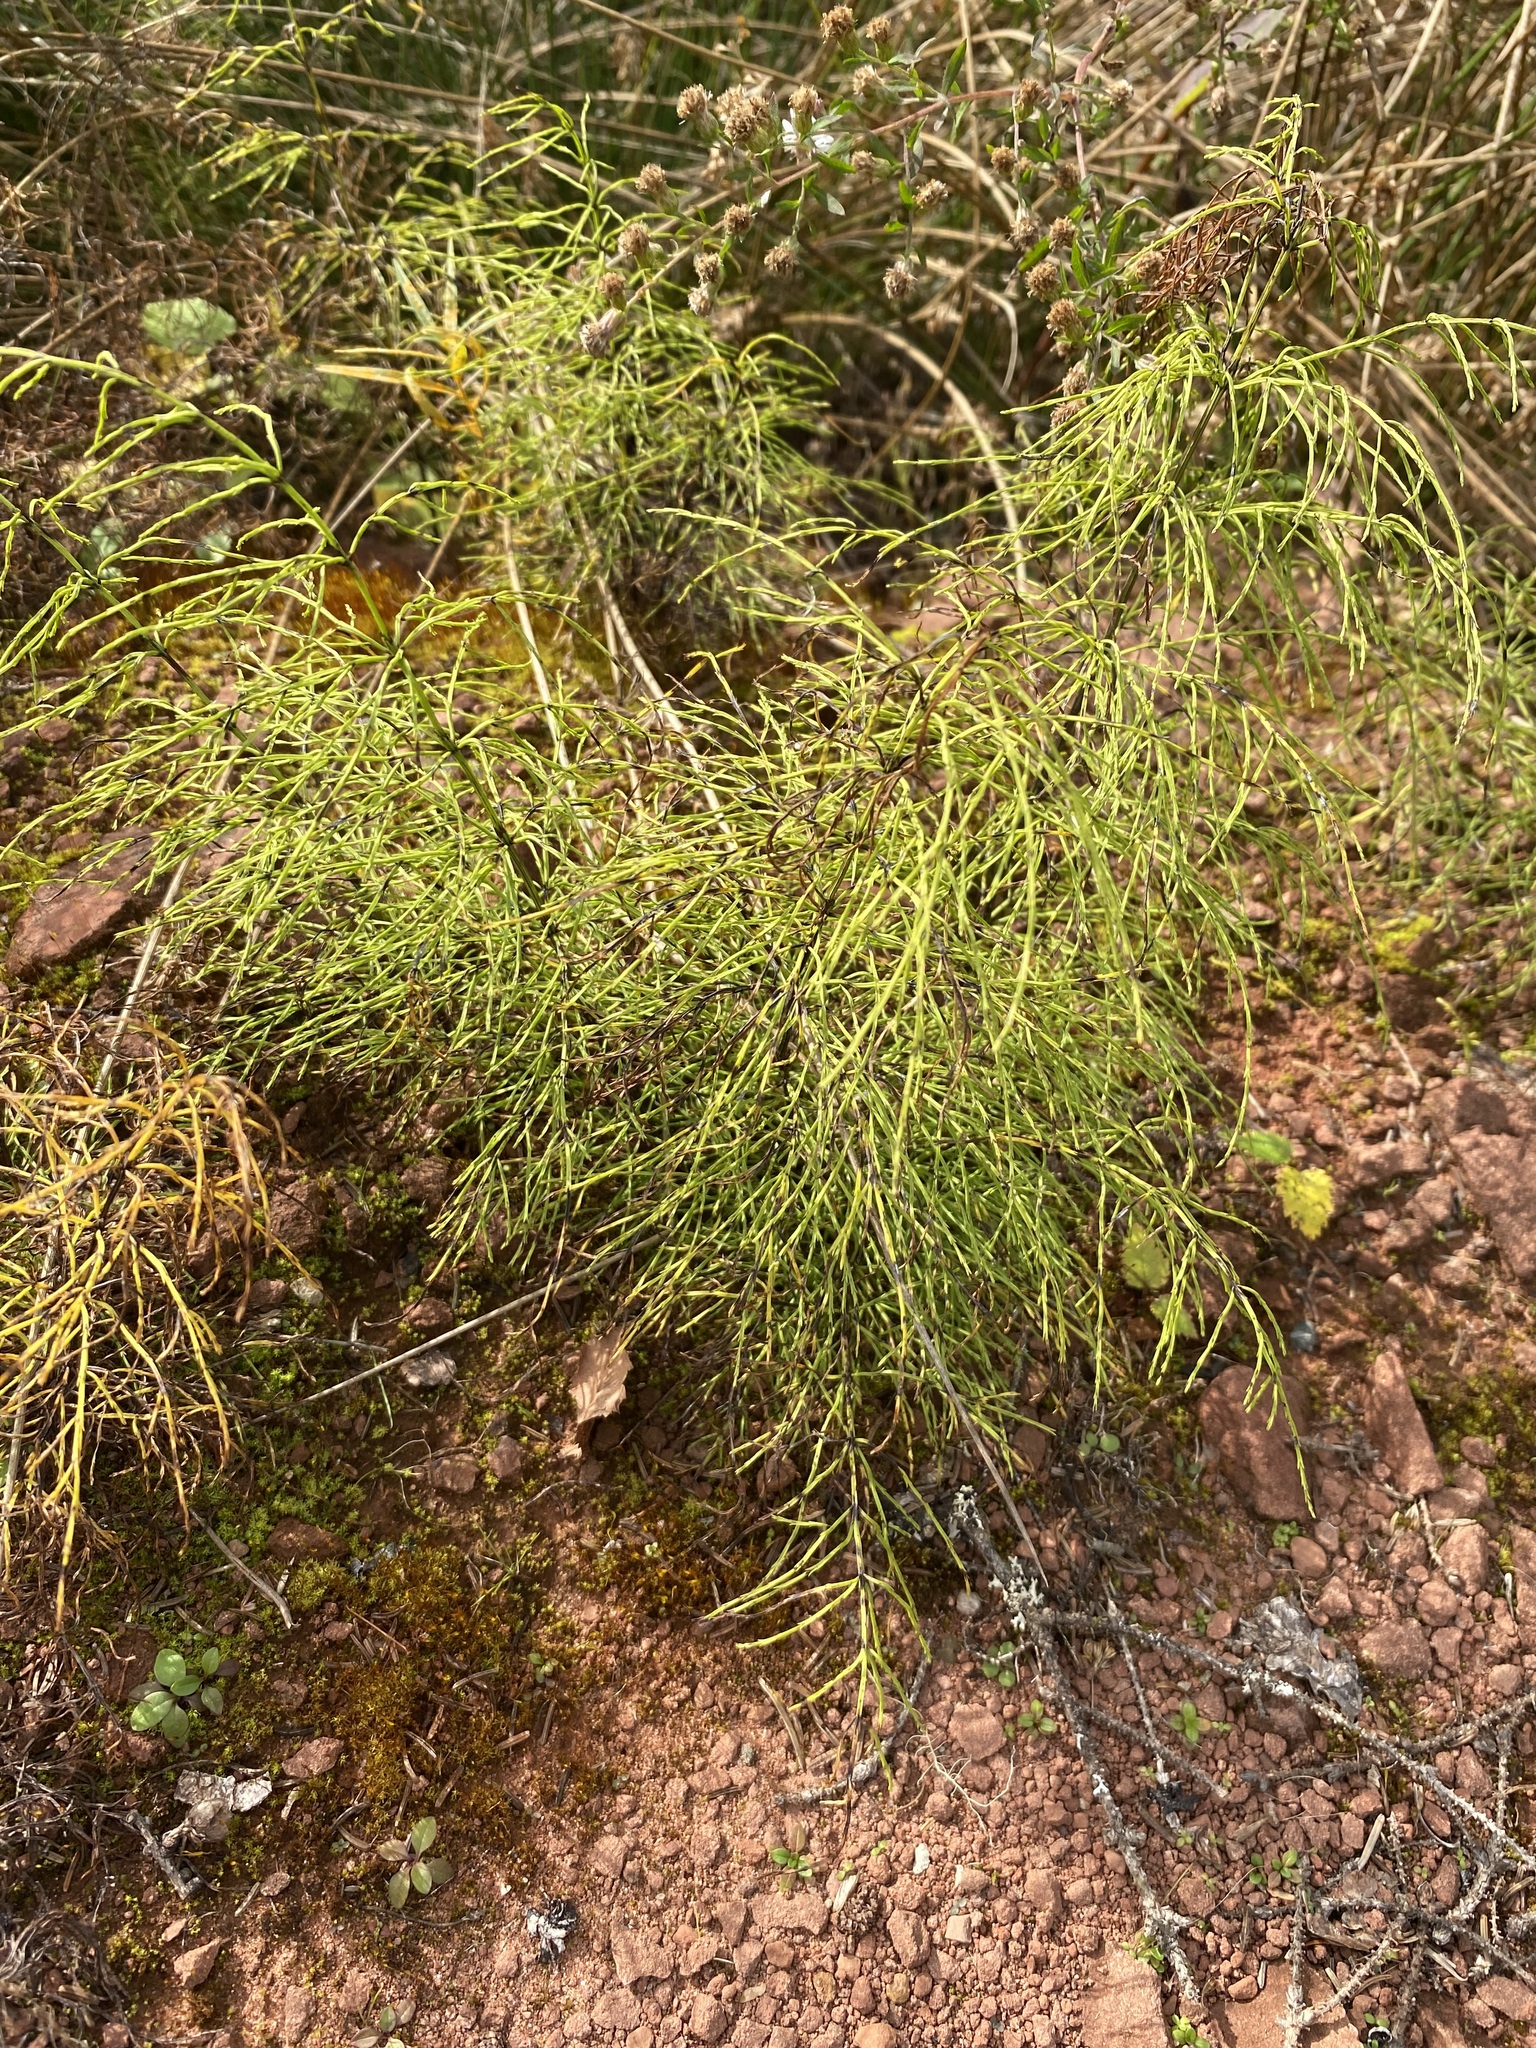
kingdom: Plantae
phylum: Tracheophyta
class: Polypodiopsida
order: Equisetales
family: Equisetaceae
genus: Equisetum
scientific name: Equisetum sylvaticum
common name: Wood horsetail
